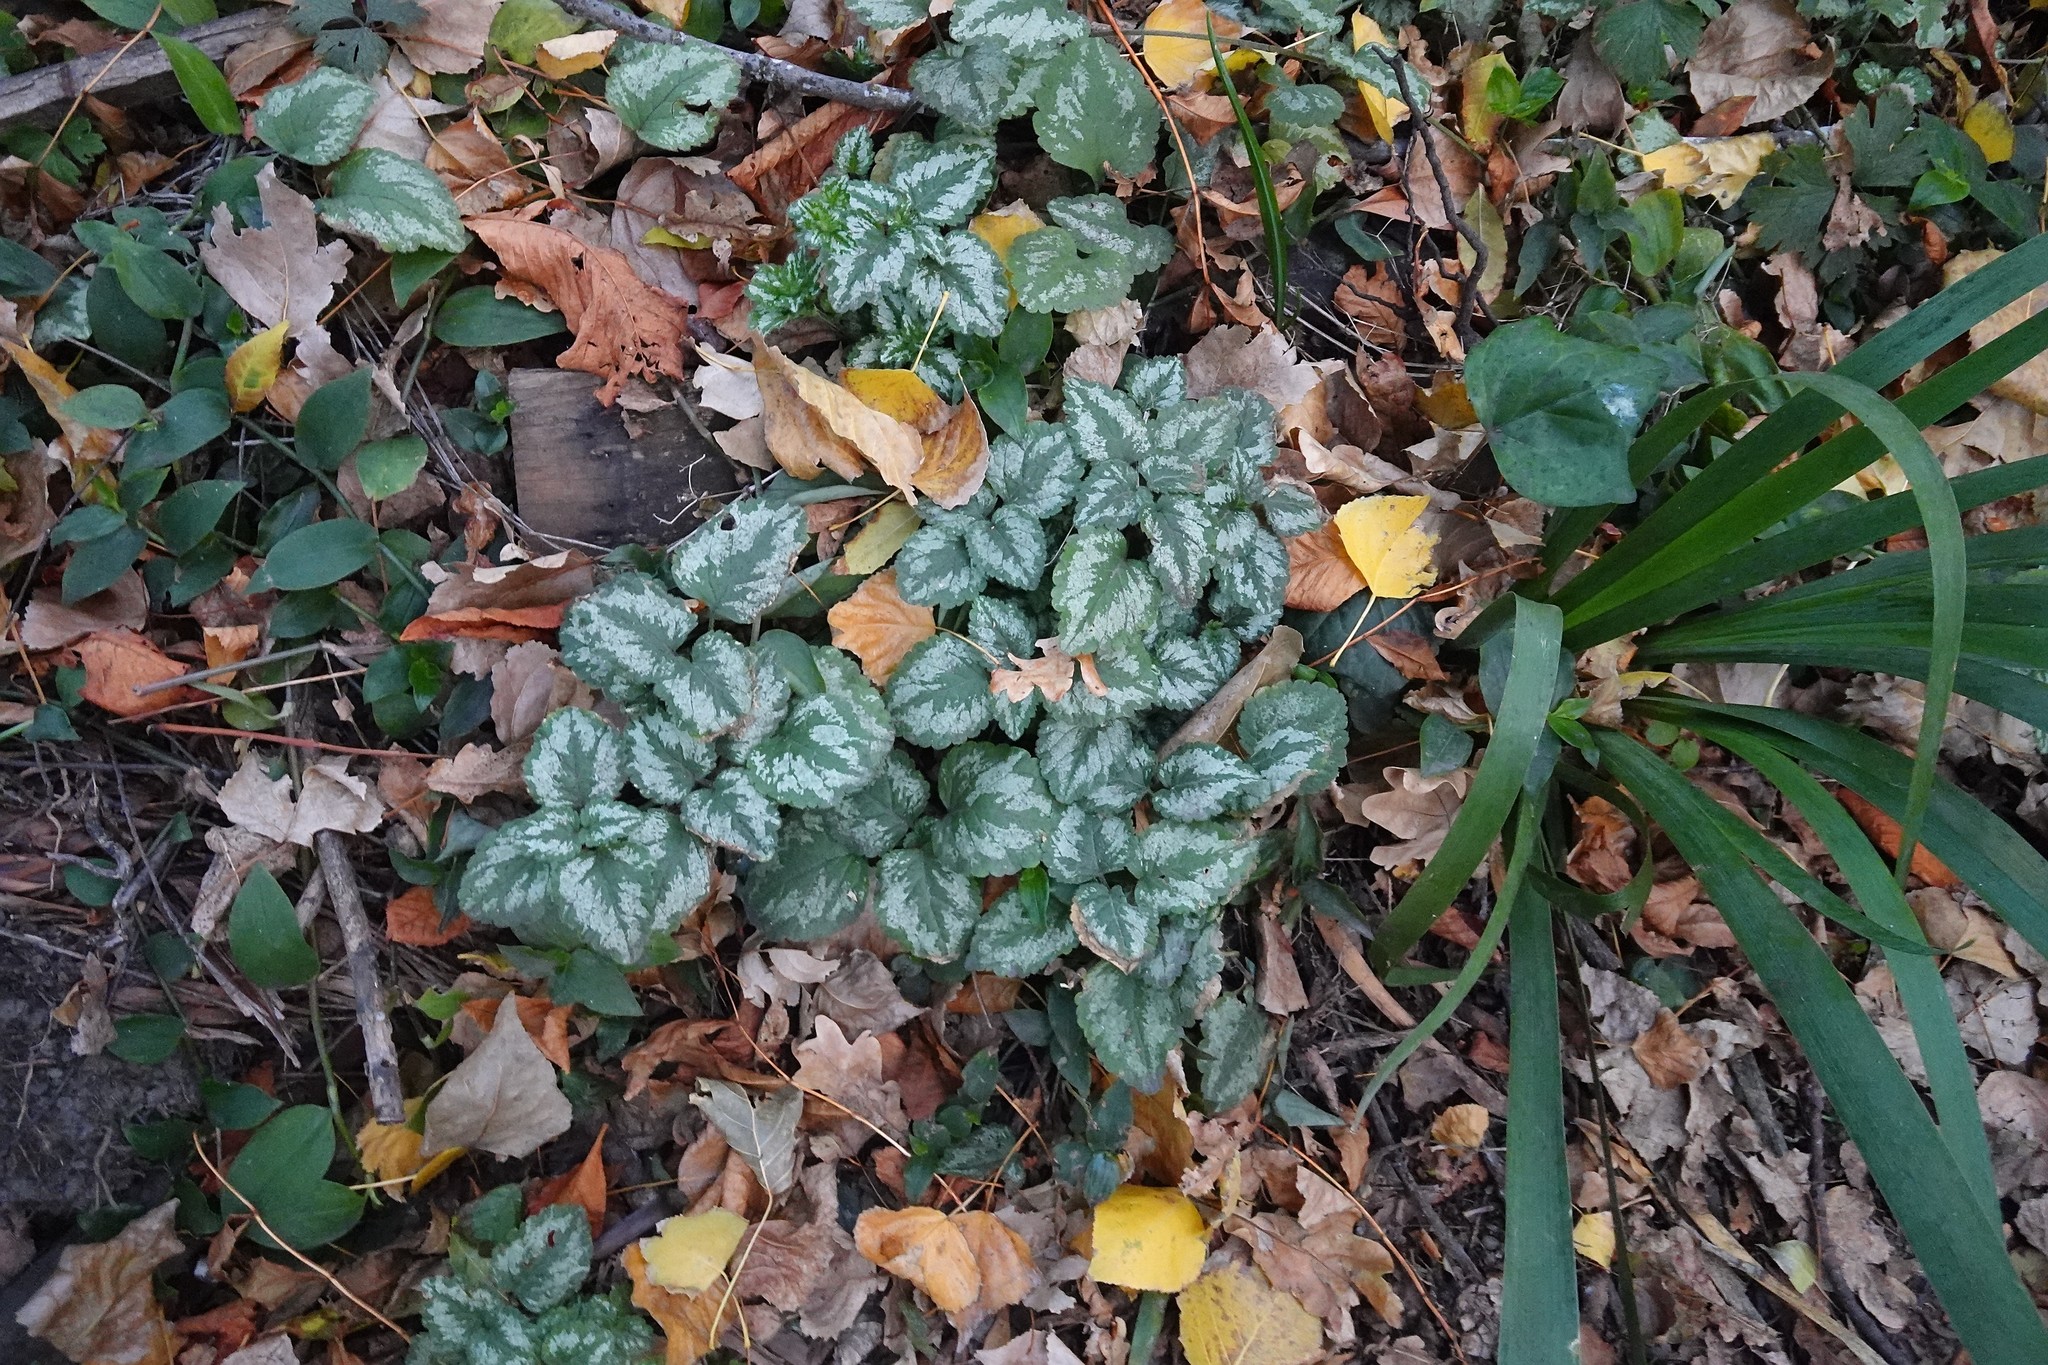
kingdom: Plantae
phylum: Tracheophyta
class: Magnoliopsida
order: Lamiales
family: Lamiaceae
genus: Lamium
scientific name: Lamium galeobdolon
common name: Yellow archangel
